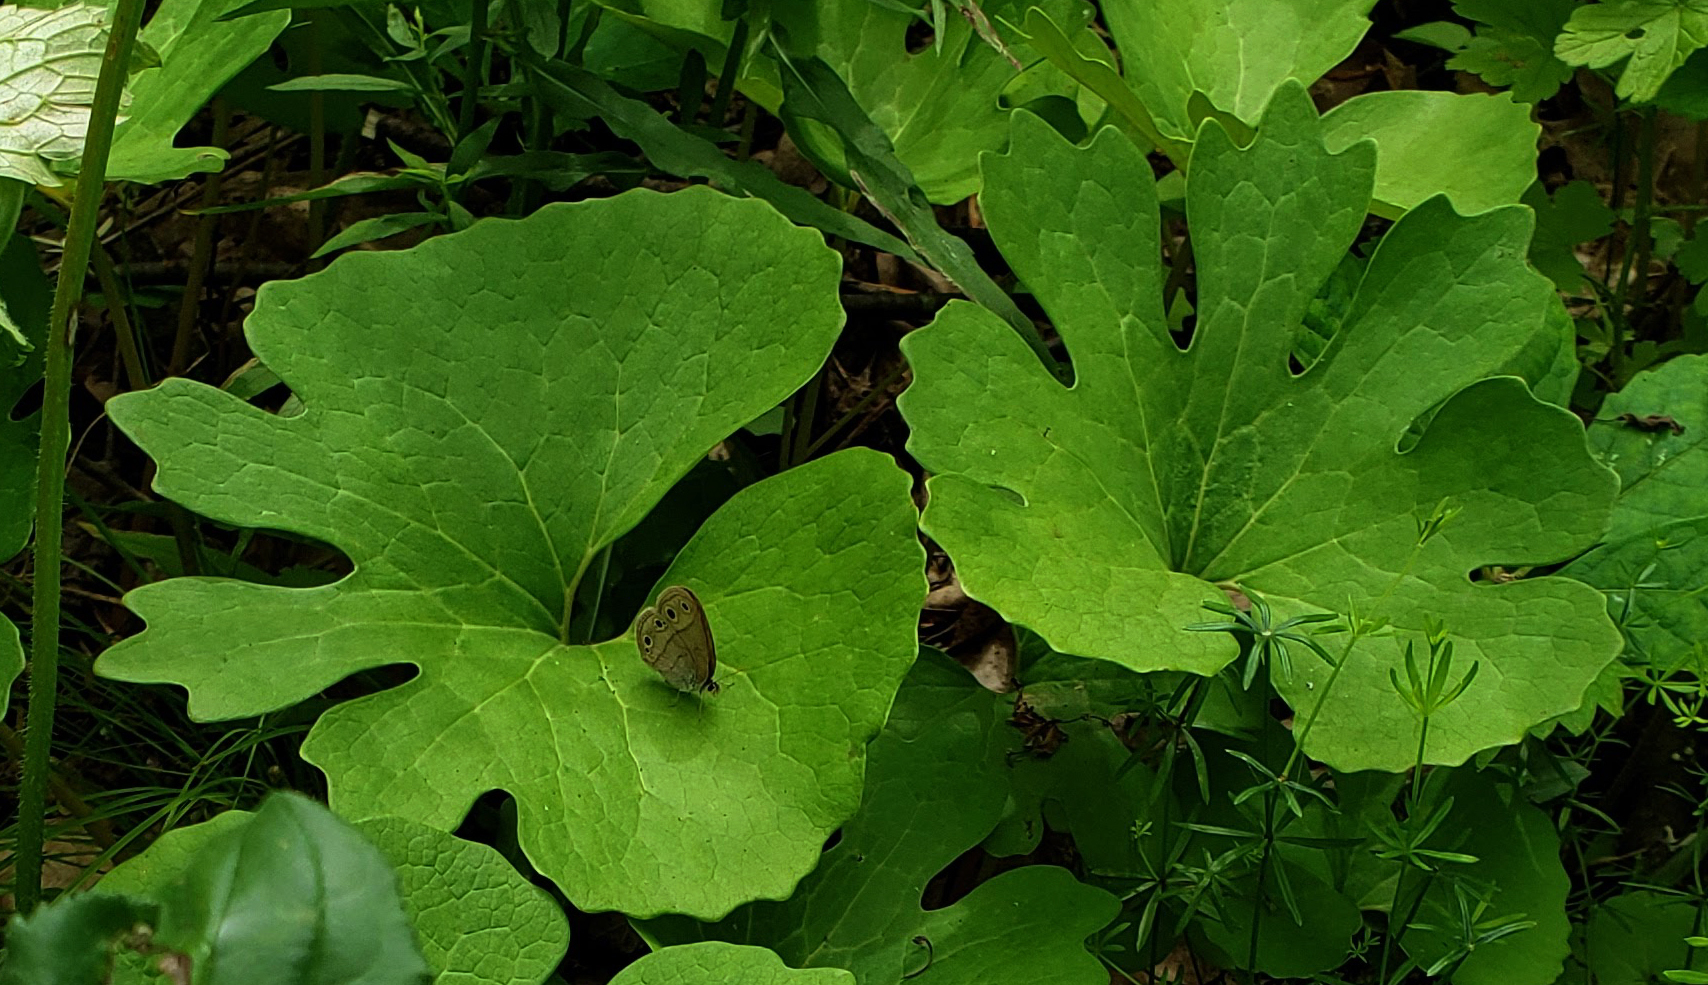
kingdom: Plantae
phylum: Tracheophyta
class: Magnoliopsida
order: Ranunculales
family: Papaveraceae
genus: Sanguinaria
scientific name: Sanguinaria canadensis
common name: Bloodroot
